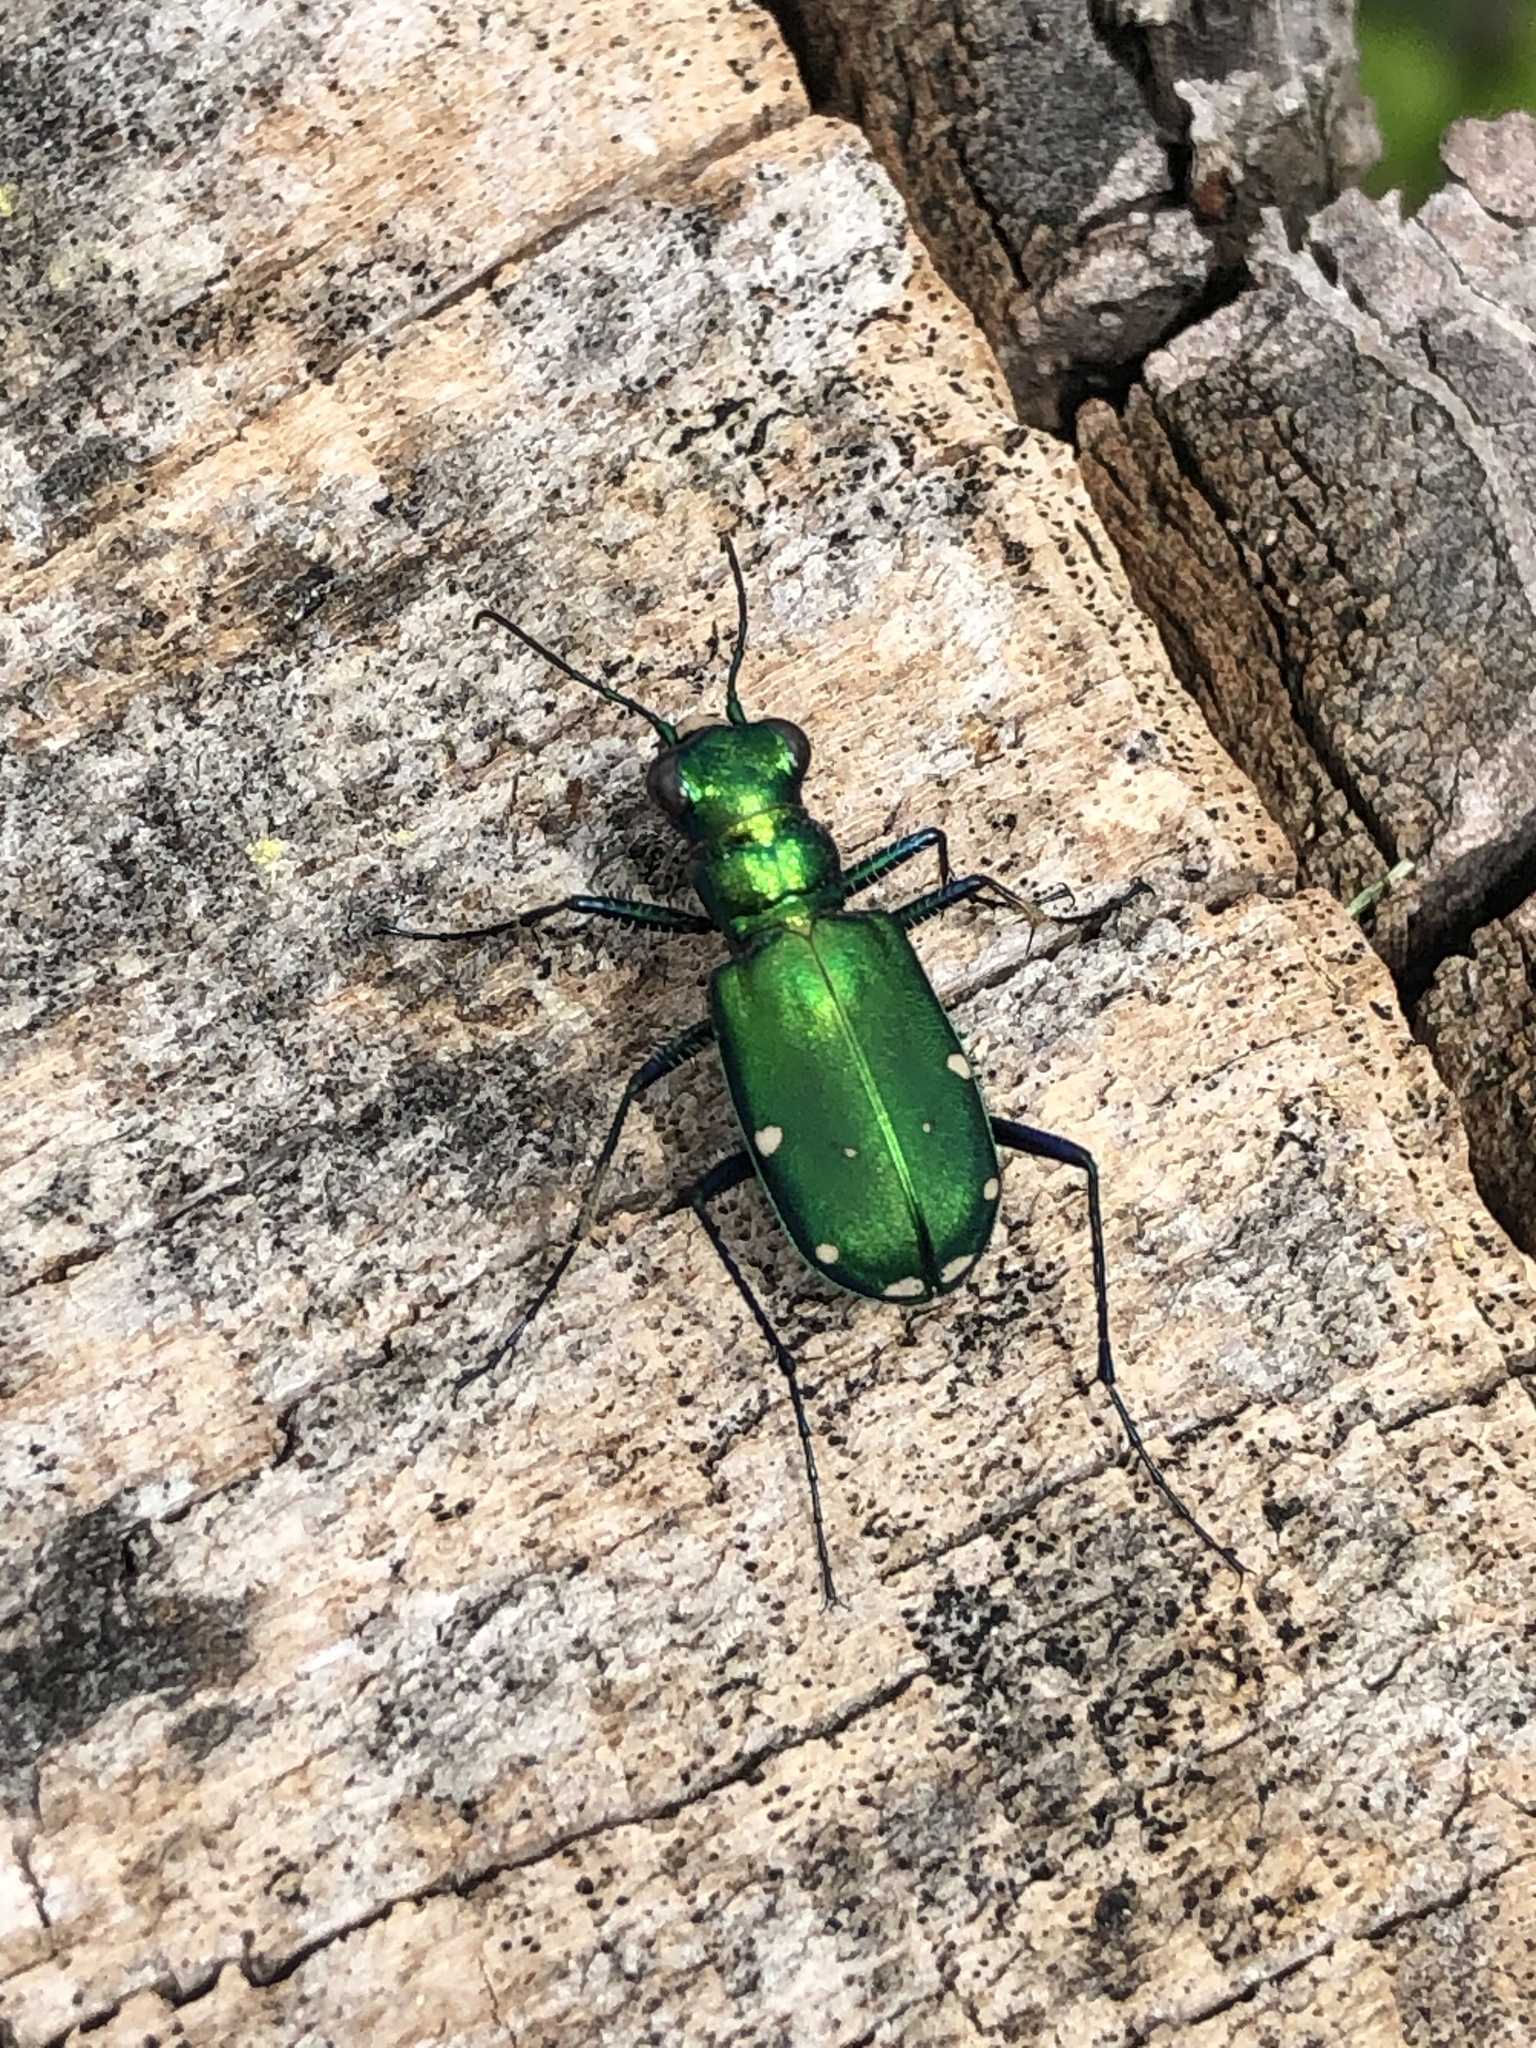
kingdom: Animalia
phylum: Arthropoda
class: Insecta
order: Coleoptera
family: Carabidae
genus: Cicindela
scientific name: Cicindela sexguttata
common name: Six-spotted tiger beetle
